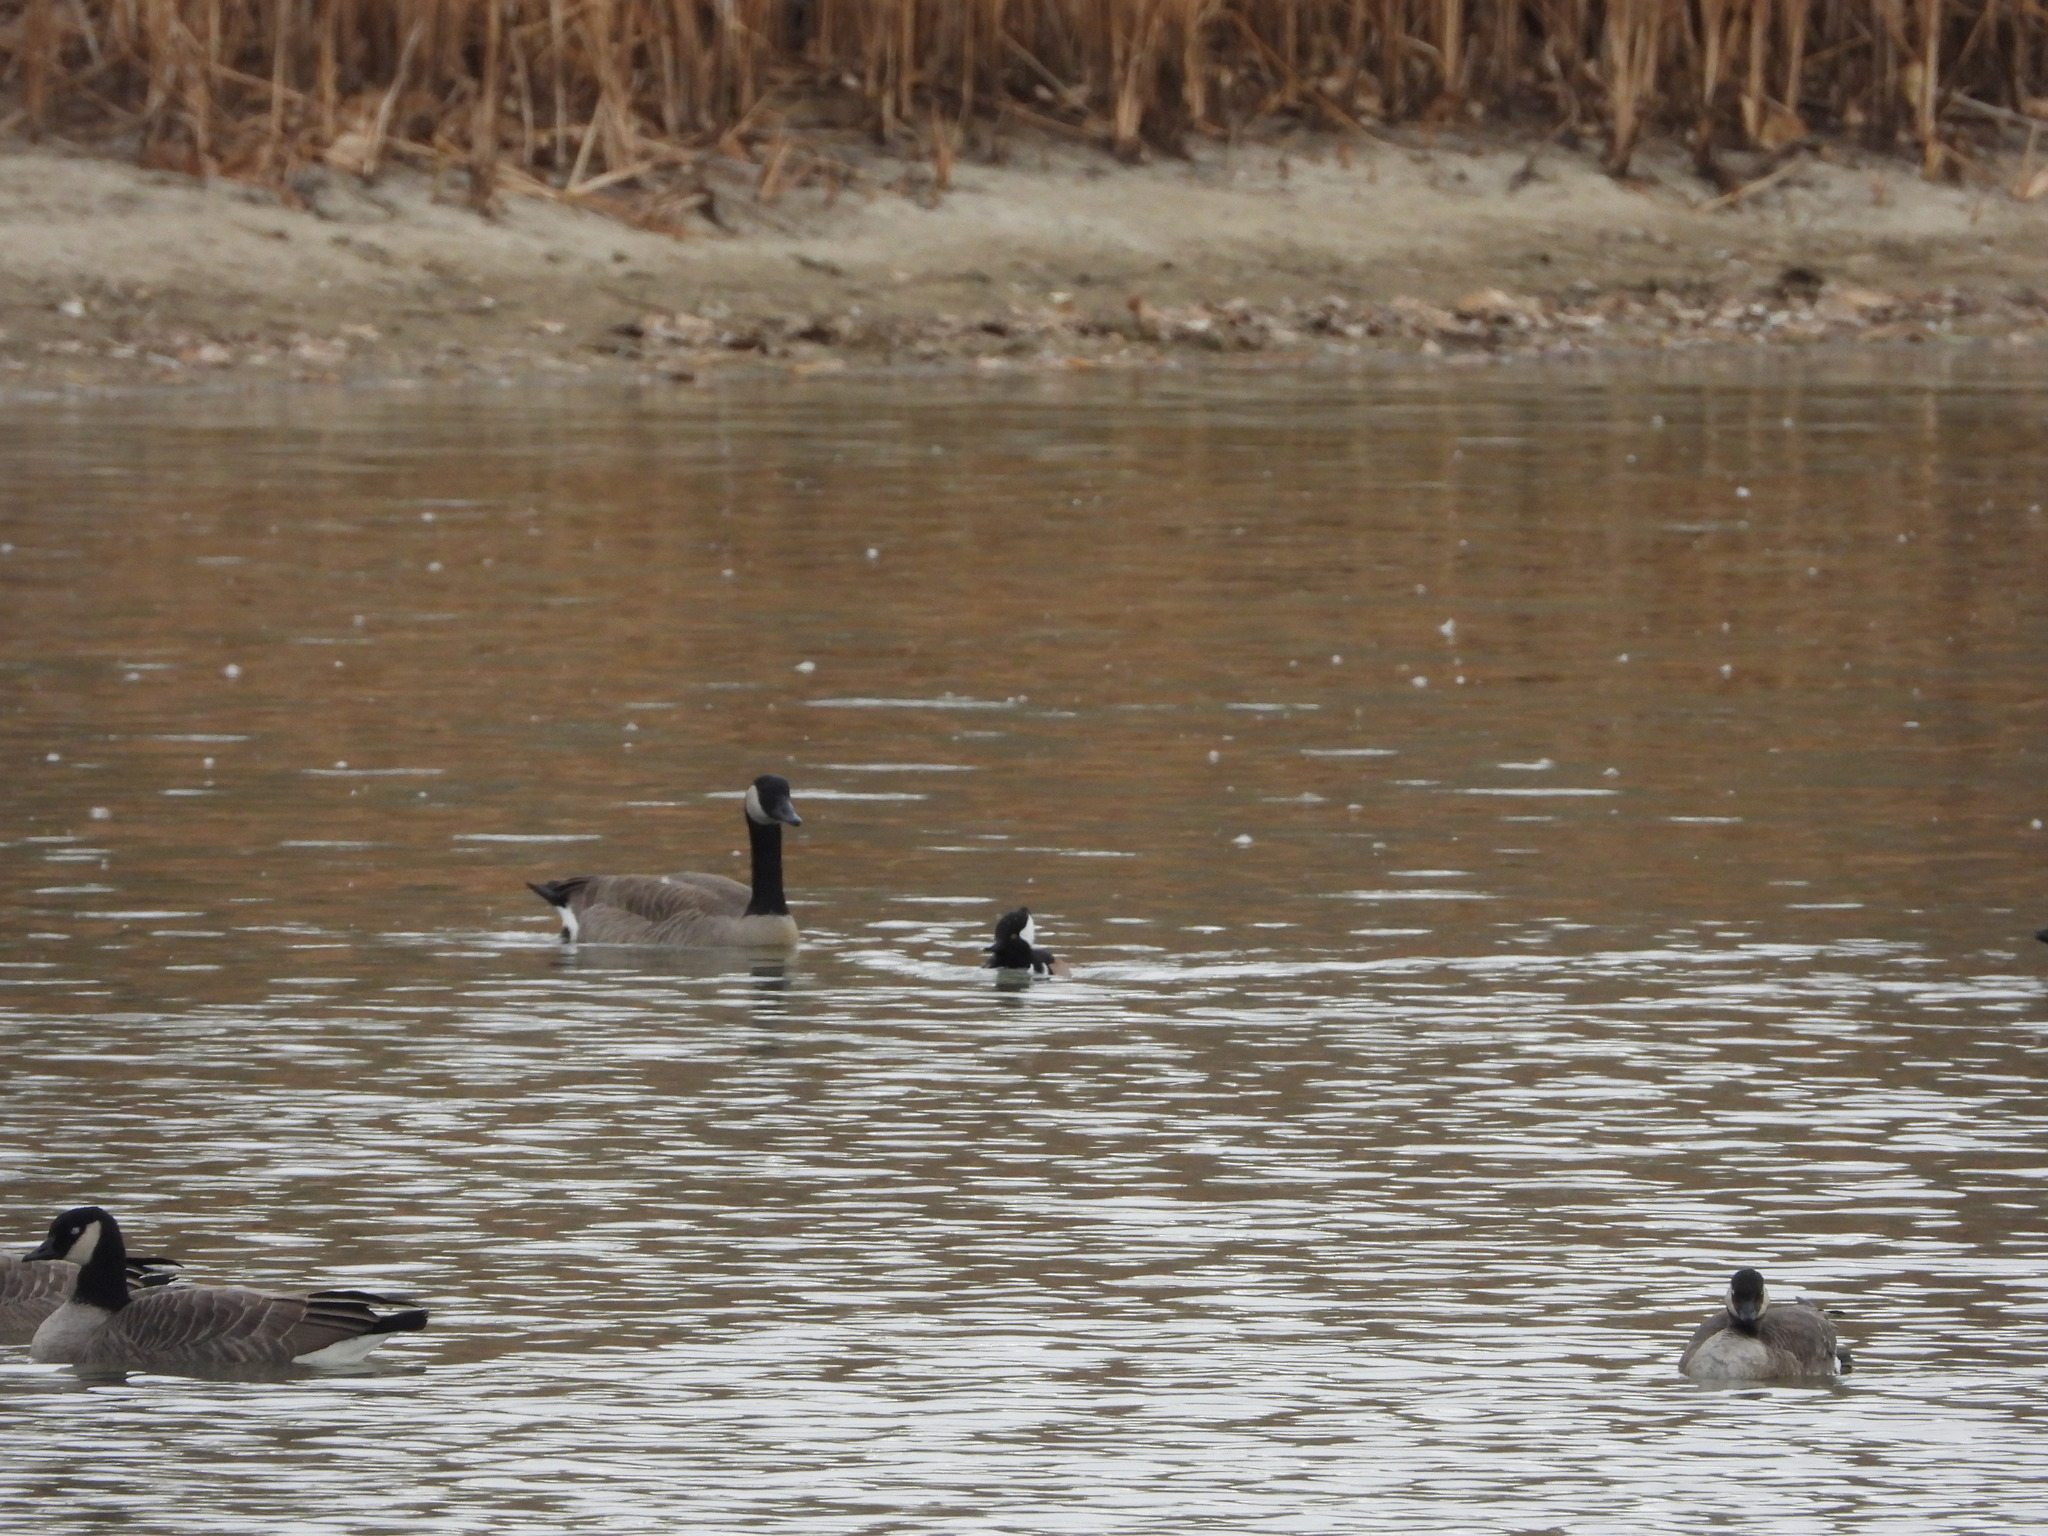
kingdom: Animalia
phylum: Chordata
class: Aves
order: Anseriformes
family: Anatidae
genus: Lophodytes
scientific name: Lophodytes cucullatus
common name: Hooded merganser
